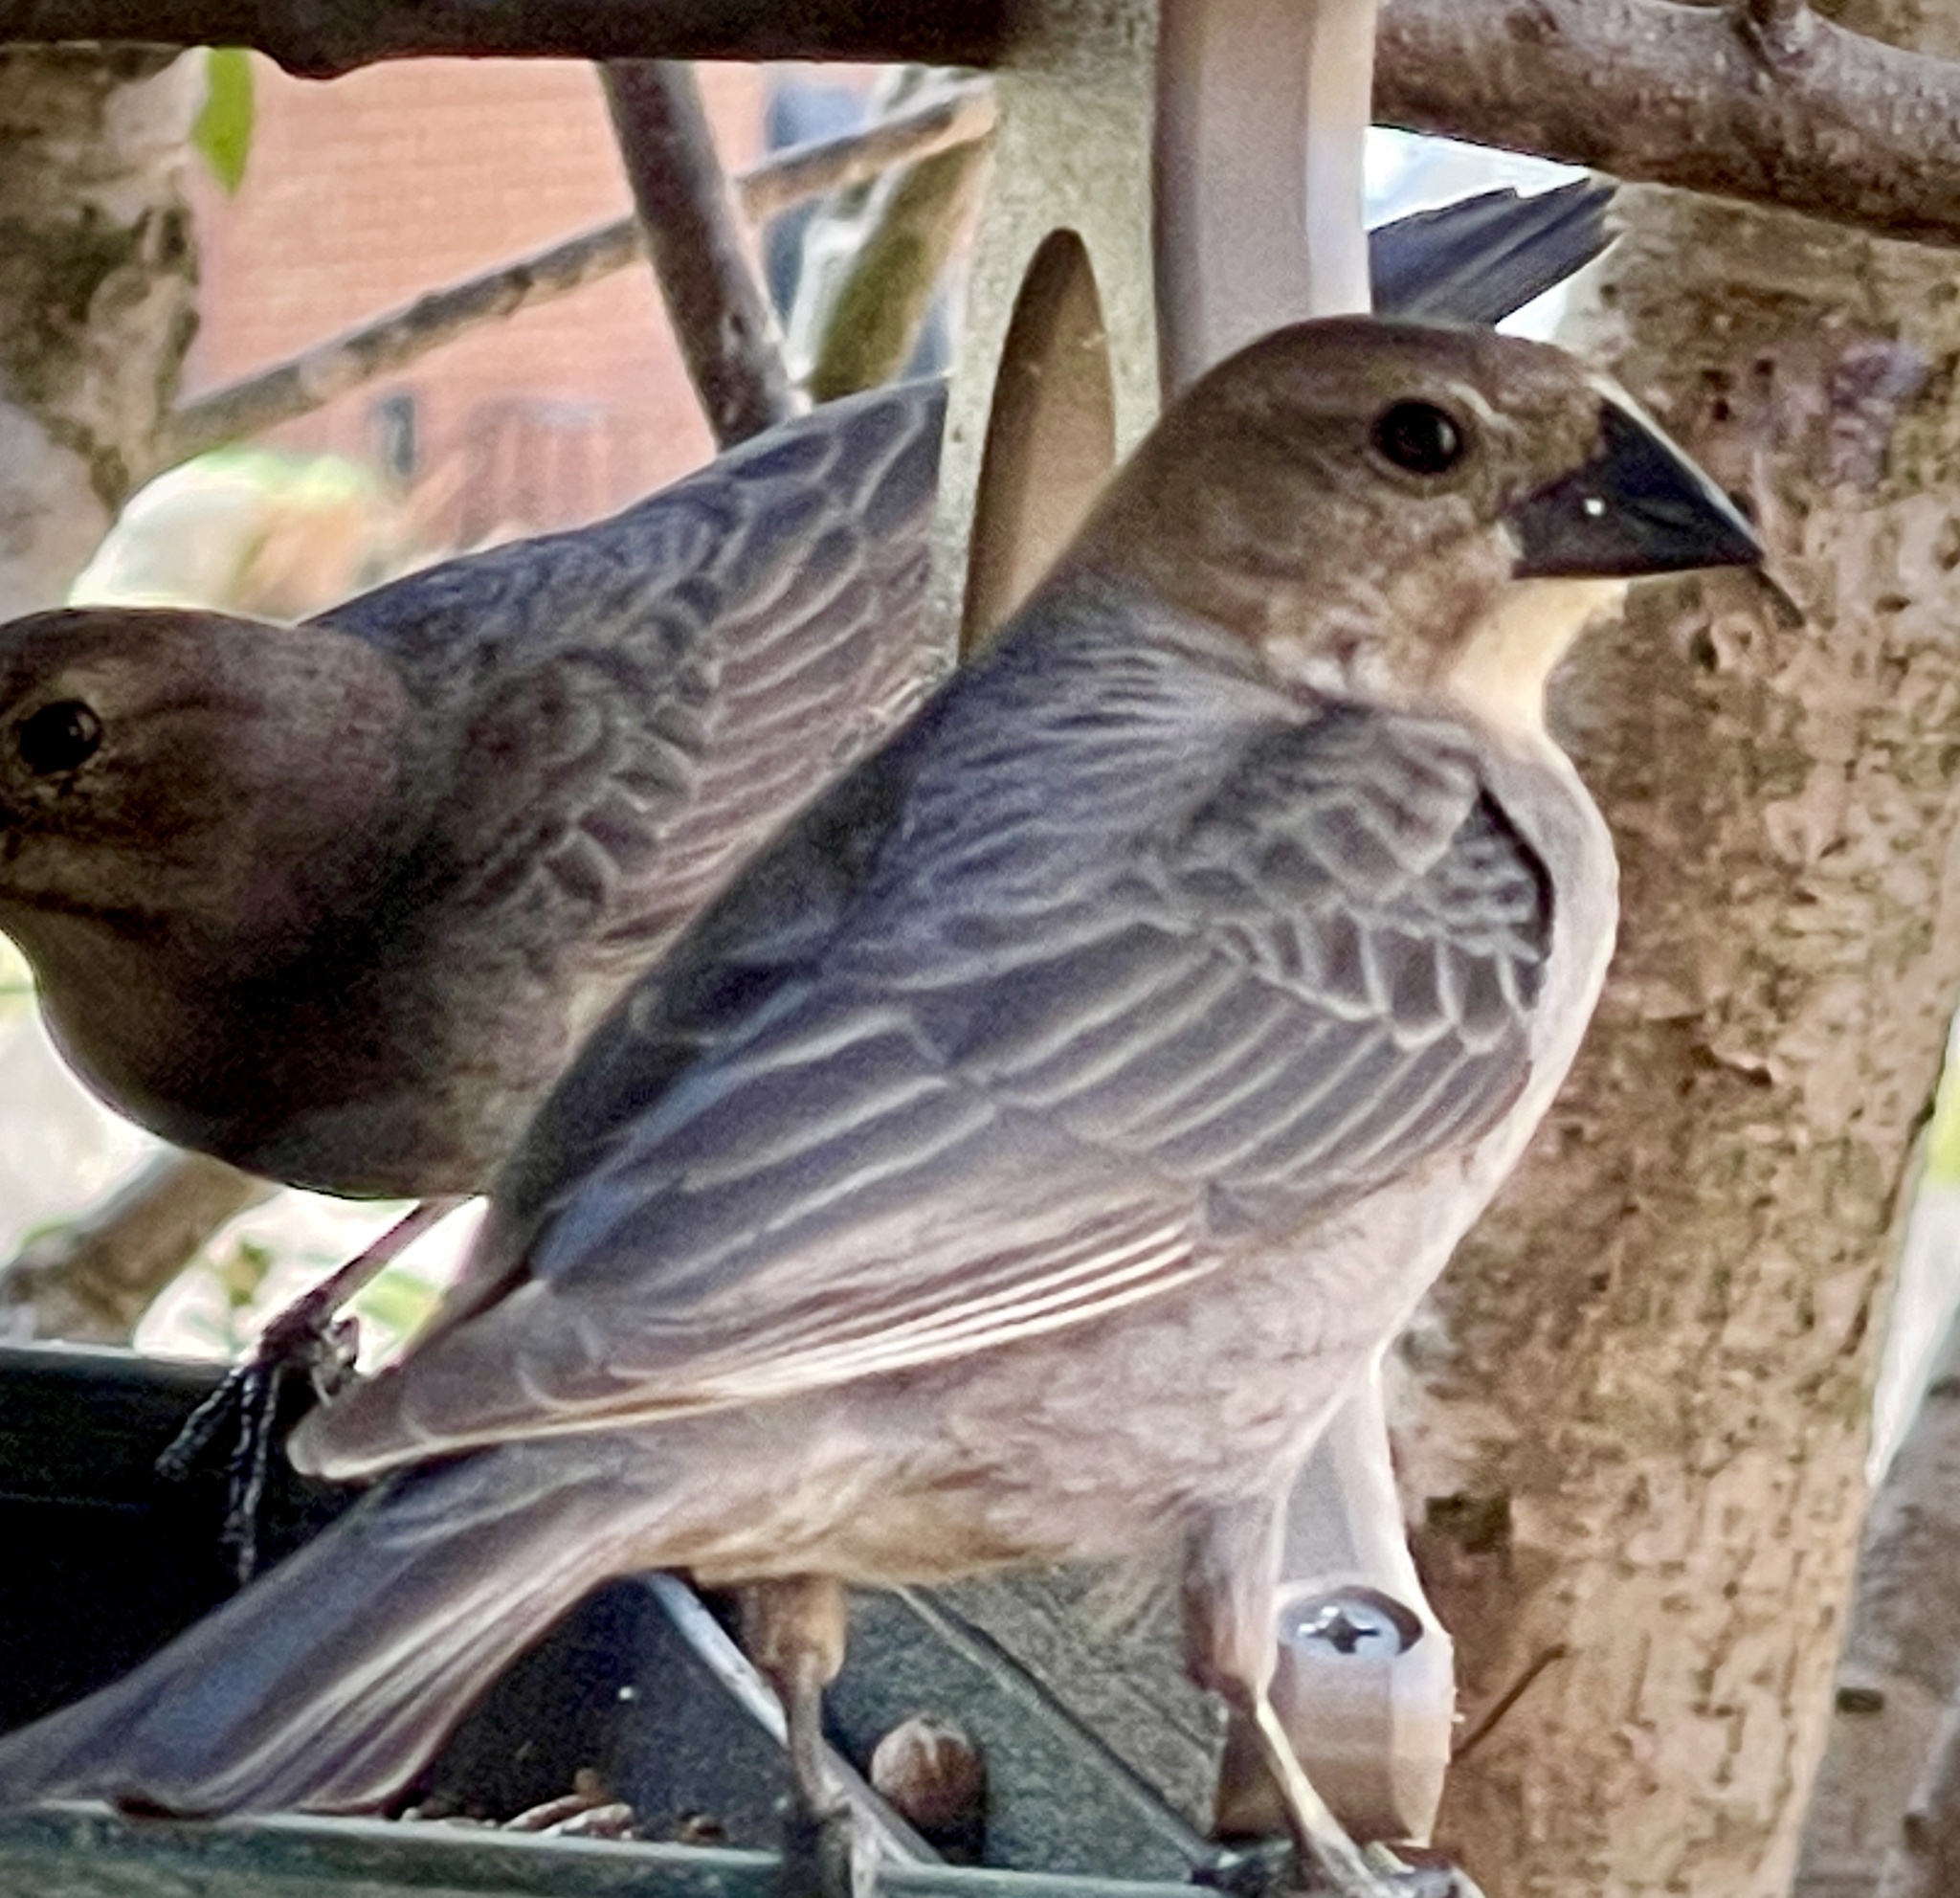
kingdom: Animalia
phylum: Chordata
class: Aves
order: Passeriformes
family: Icteridae
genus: Molothrus
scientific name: Molothrus ater
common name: Brown-headed cowbird
